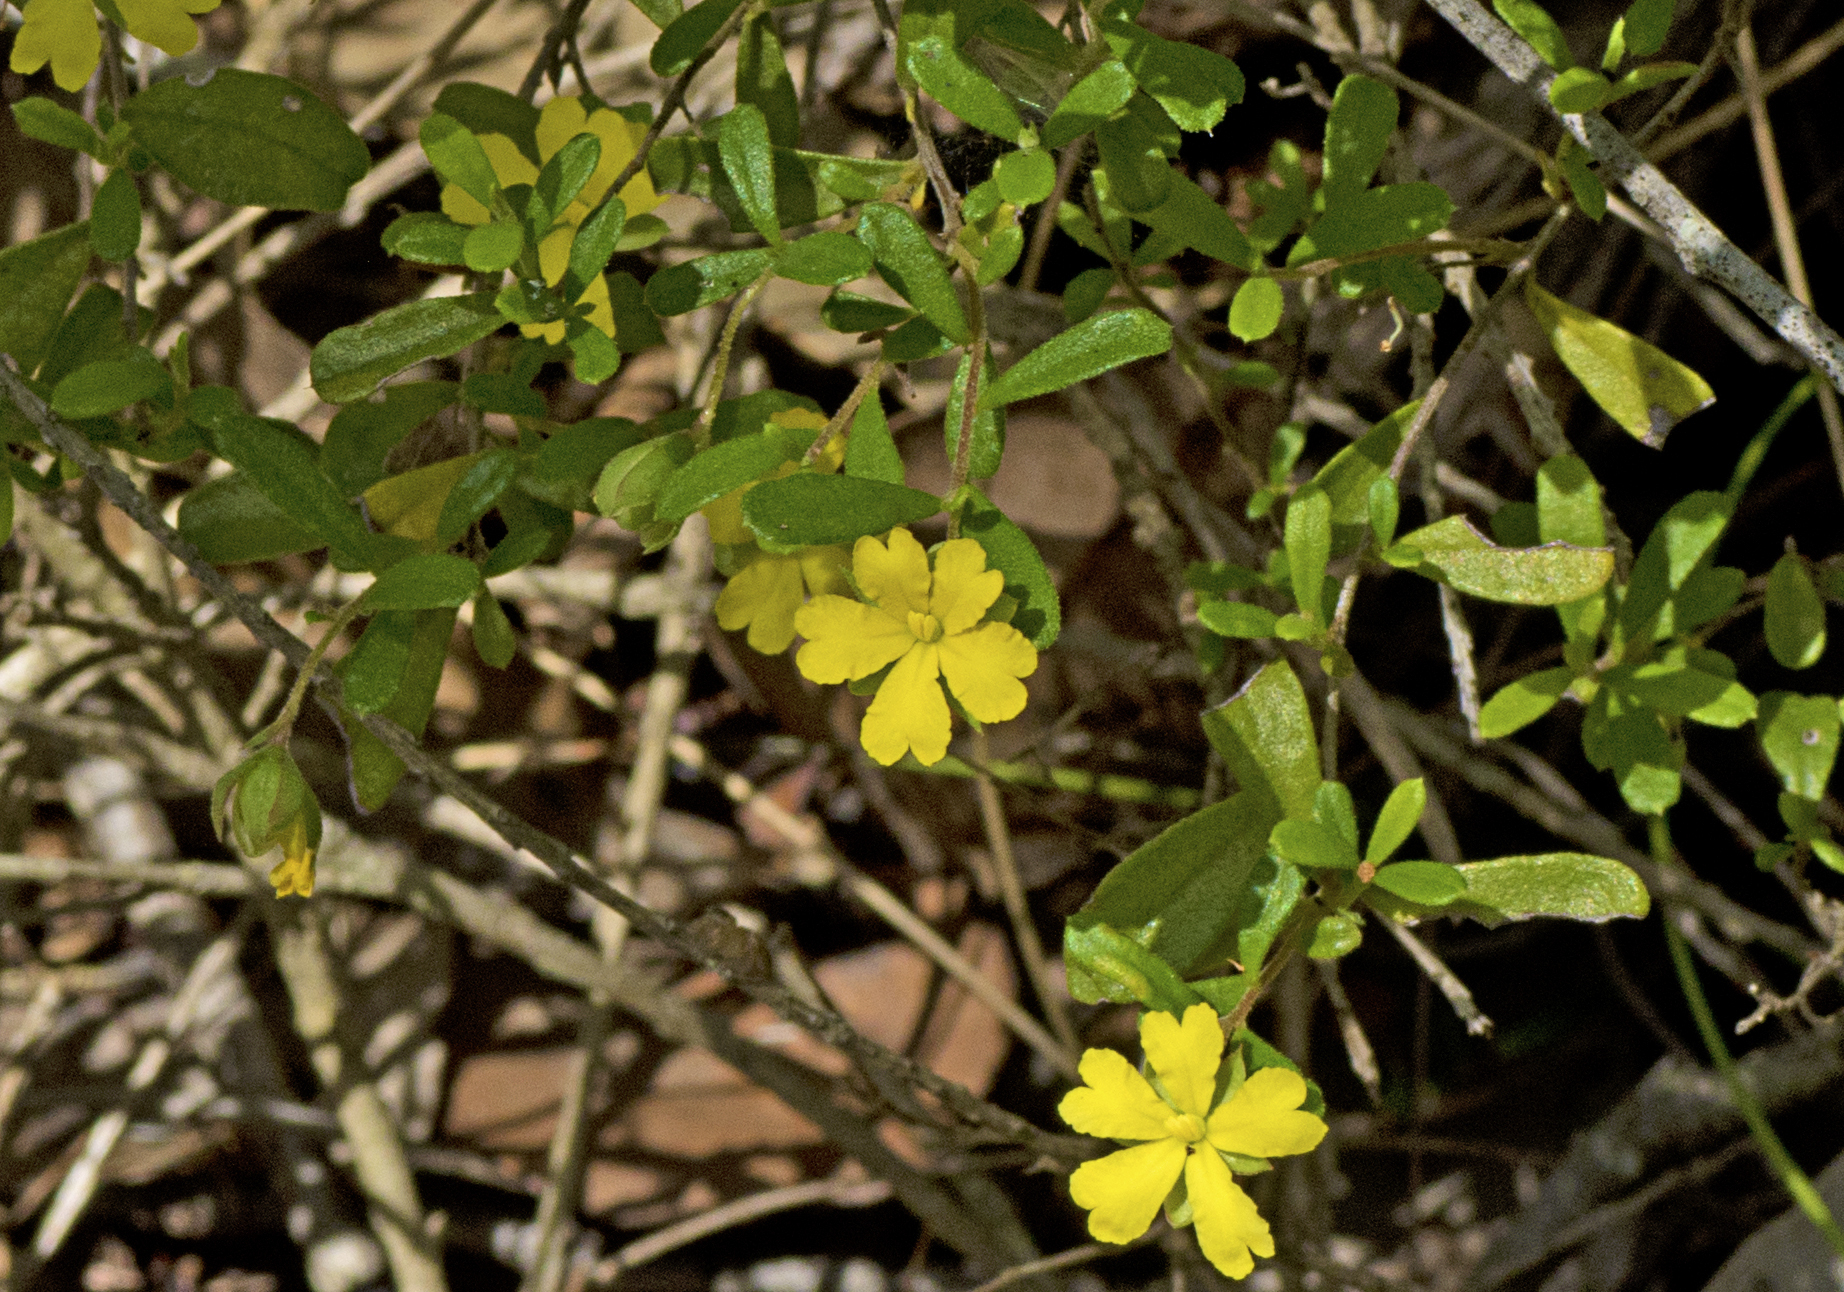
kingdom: Plantae
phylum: Tracheophyta
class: Magnoliopsida
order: Dilleniales
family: Dilleniaceae
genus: Hibbertia
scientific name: Hibbertia aspera
